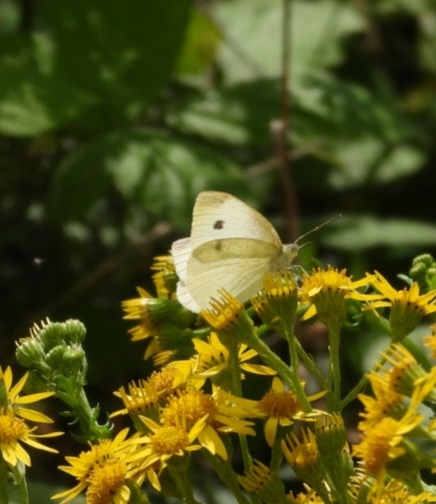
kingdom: Animalia
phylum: Arthropoda
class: Insecta
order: Lepidoptera
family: Pieridae
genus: Pieris
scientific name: Pieris rapae
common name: Small white
